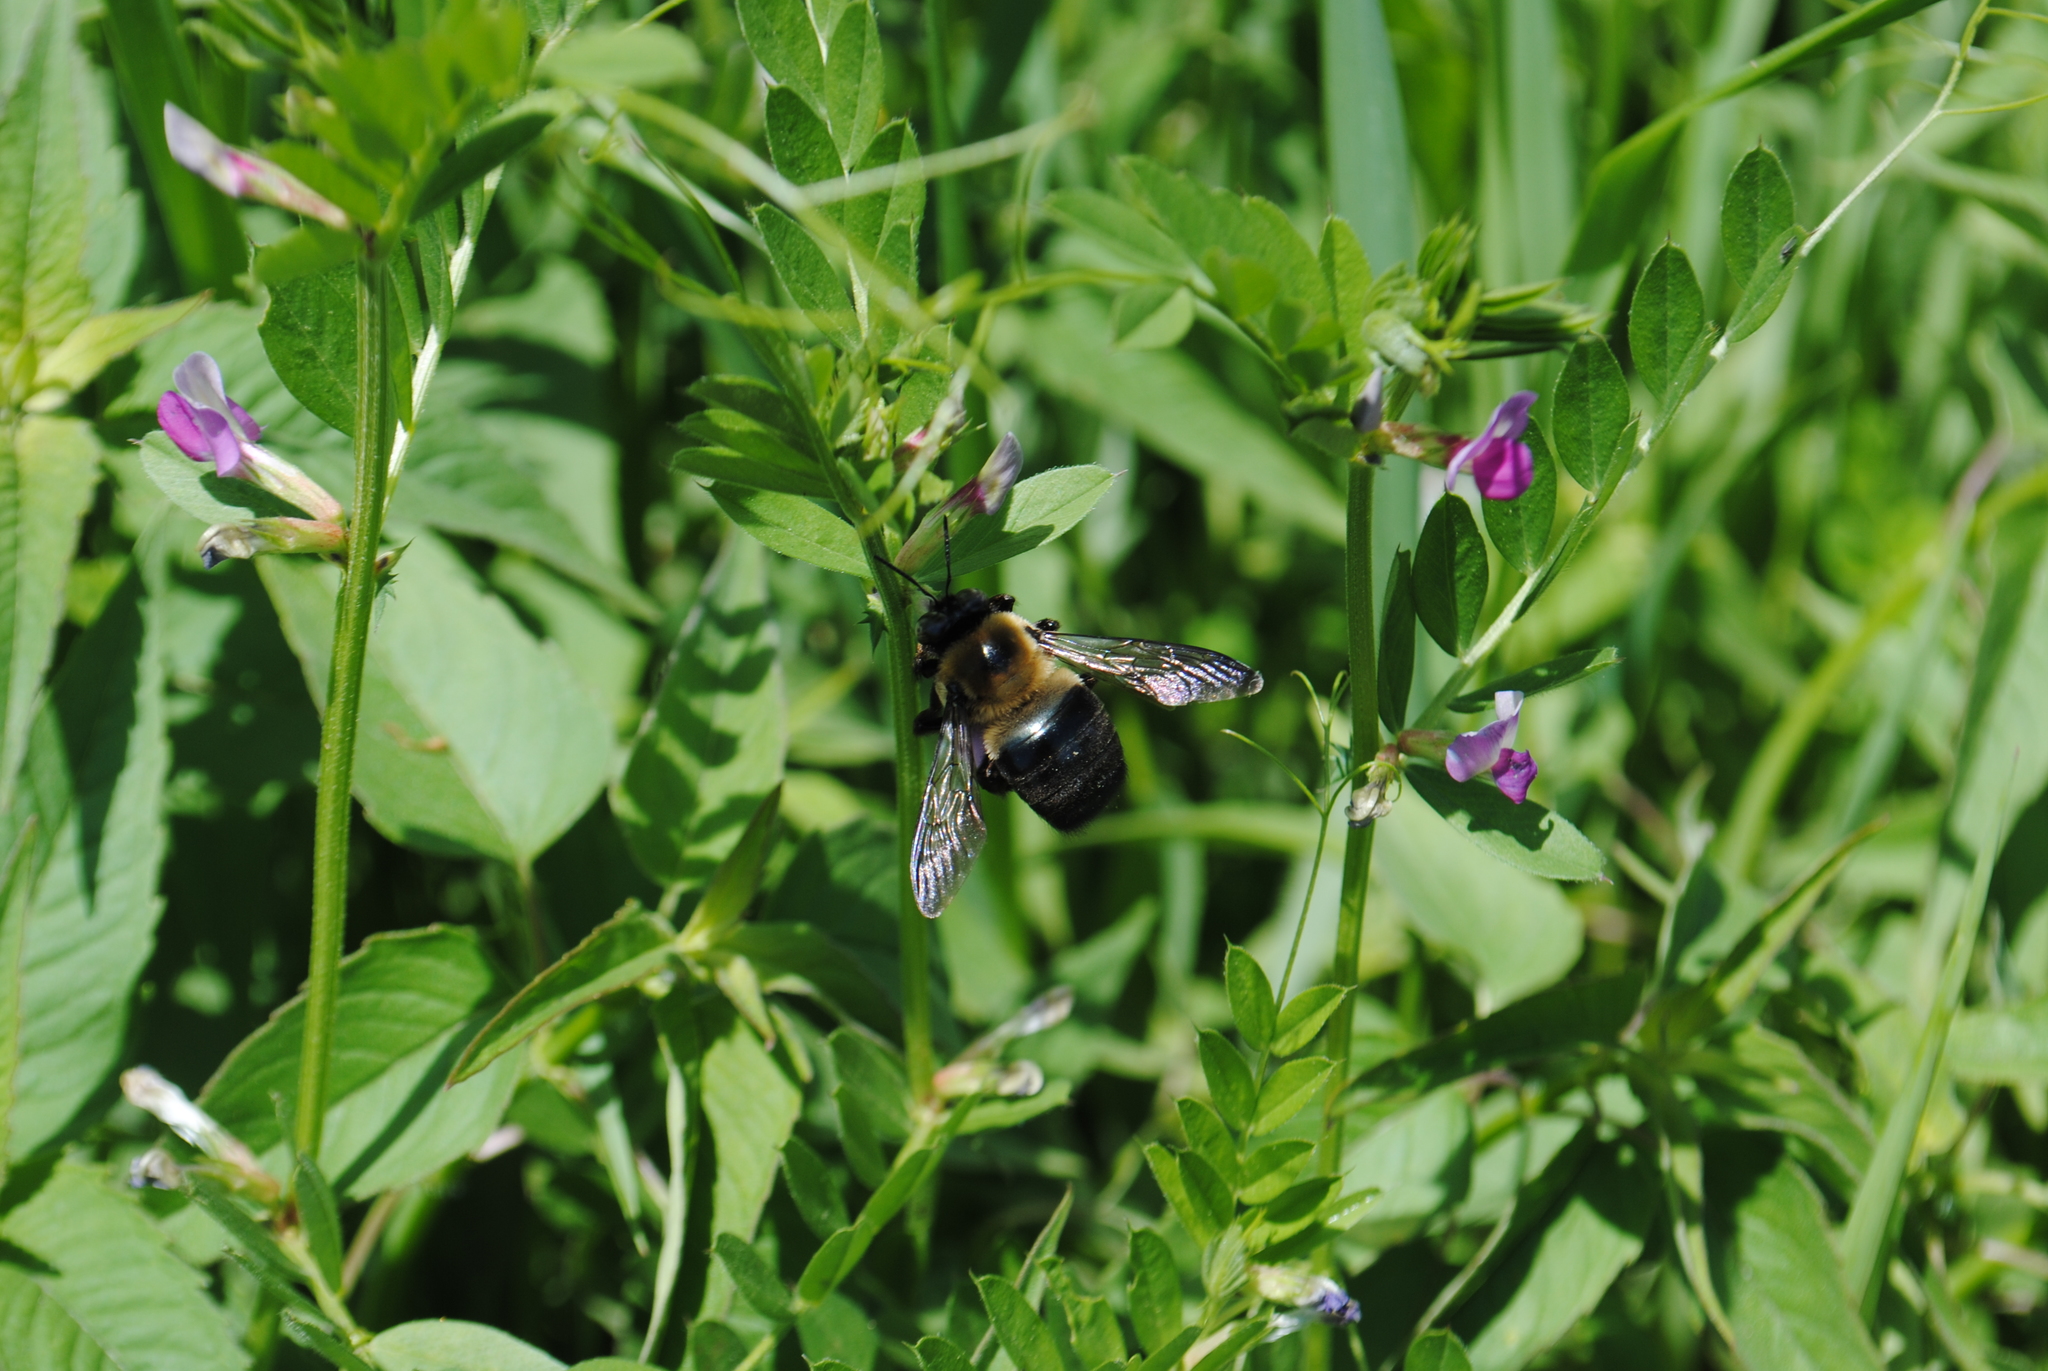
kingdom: Animalia
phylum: Arthropoda
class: Insecta
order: Hymenoptera
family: Apidae
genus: Xylocopa
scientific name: Xylocopa virginica
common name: Carpenter bee
